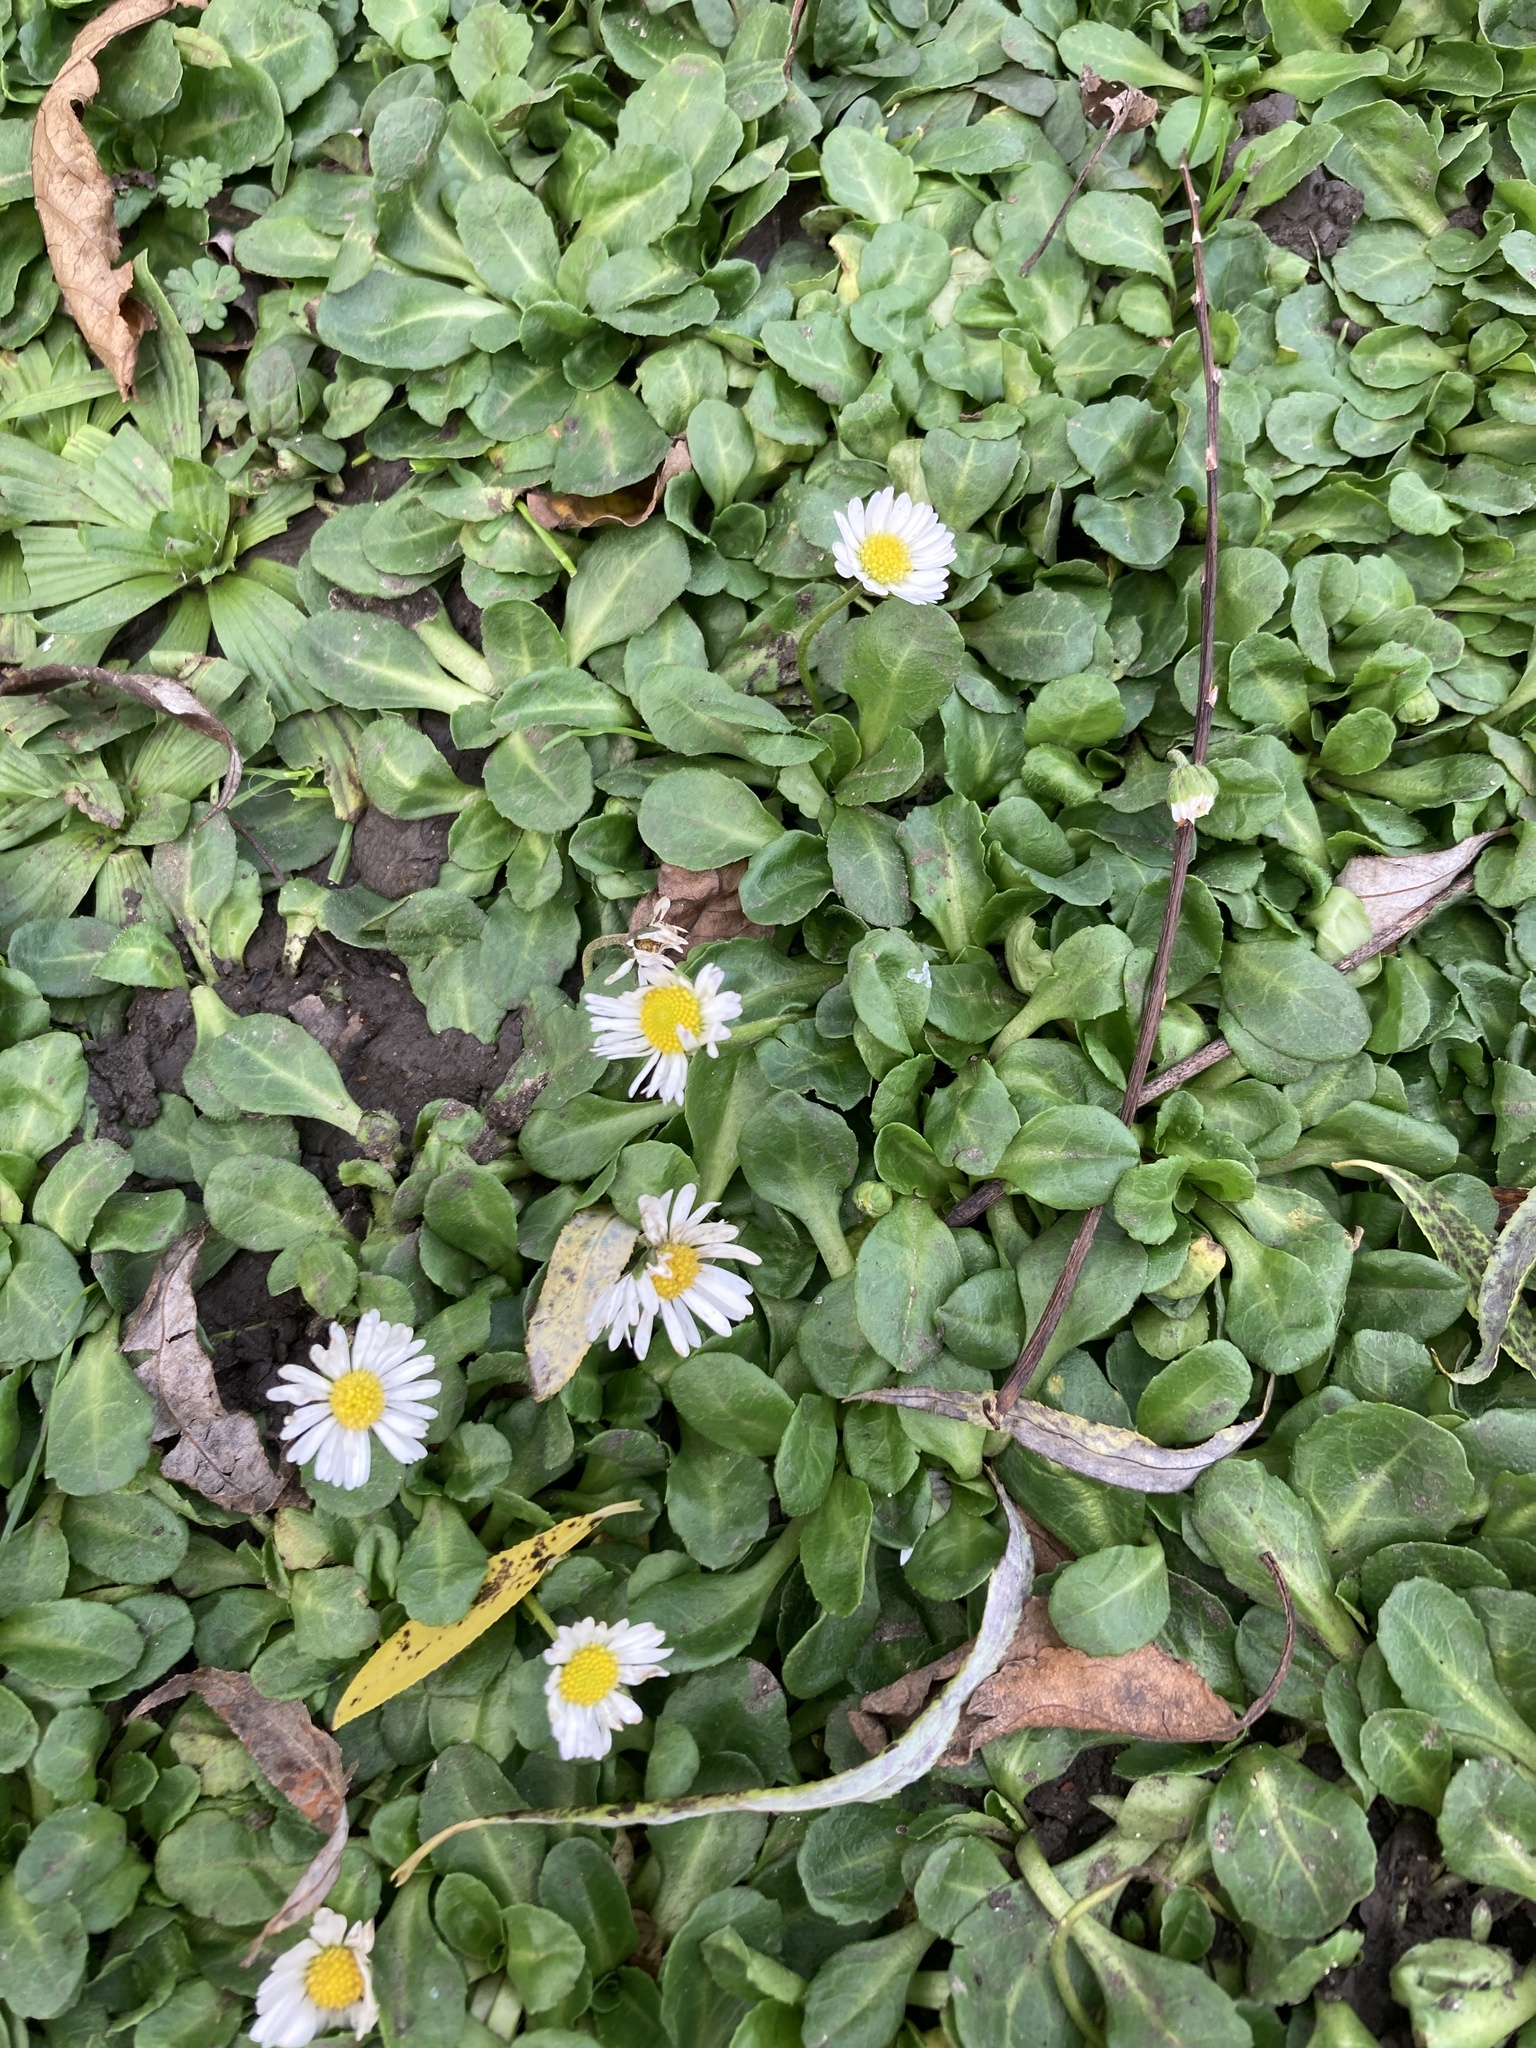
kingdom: Plantae
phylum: Tracheophyta
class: Magnoliopsida
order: Asterales
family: Asteraceae
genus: Bellis
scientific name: Bellis perennis
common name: Lawndaisy
